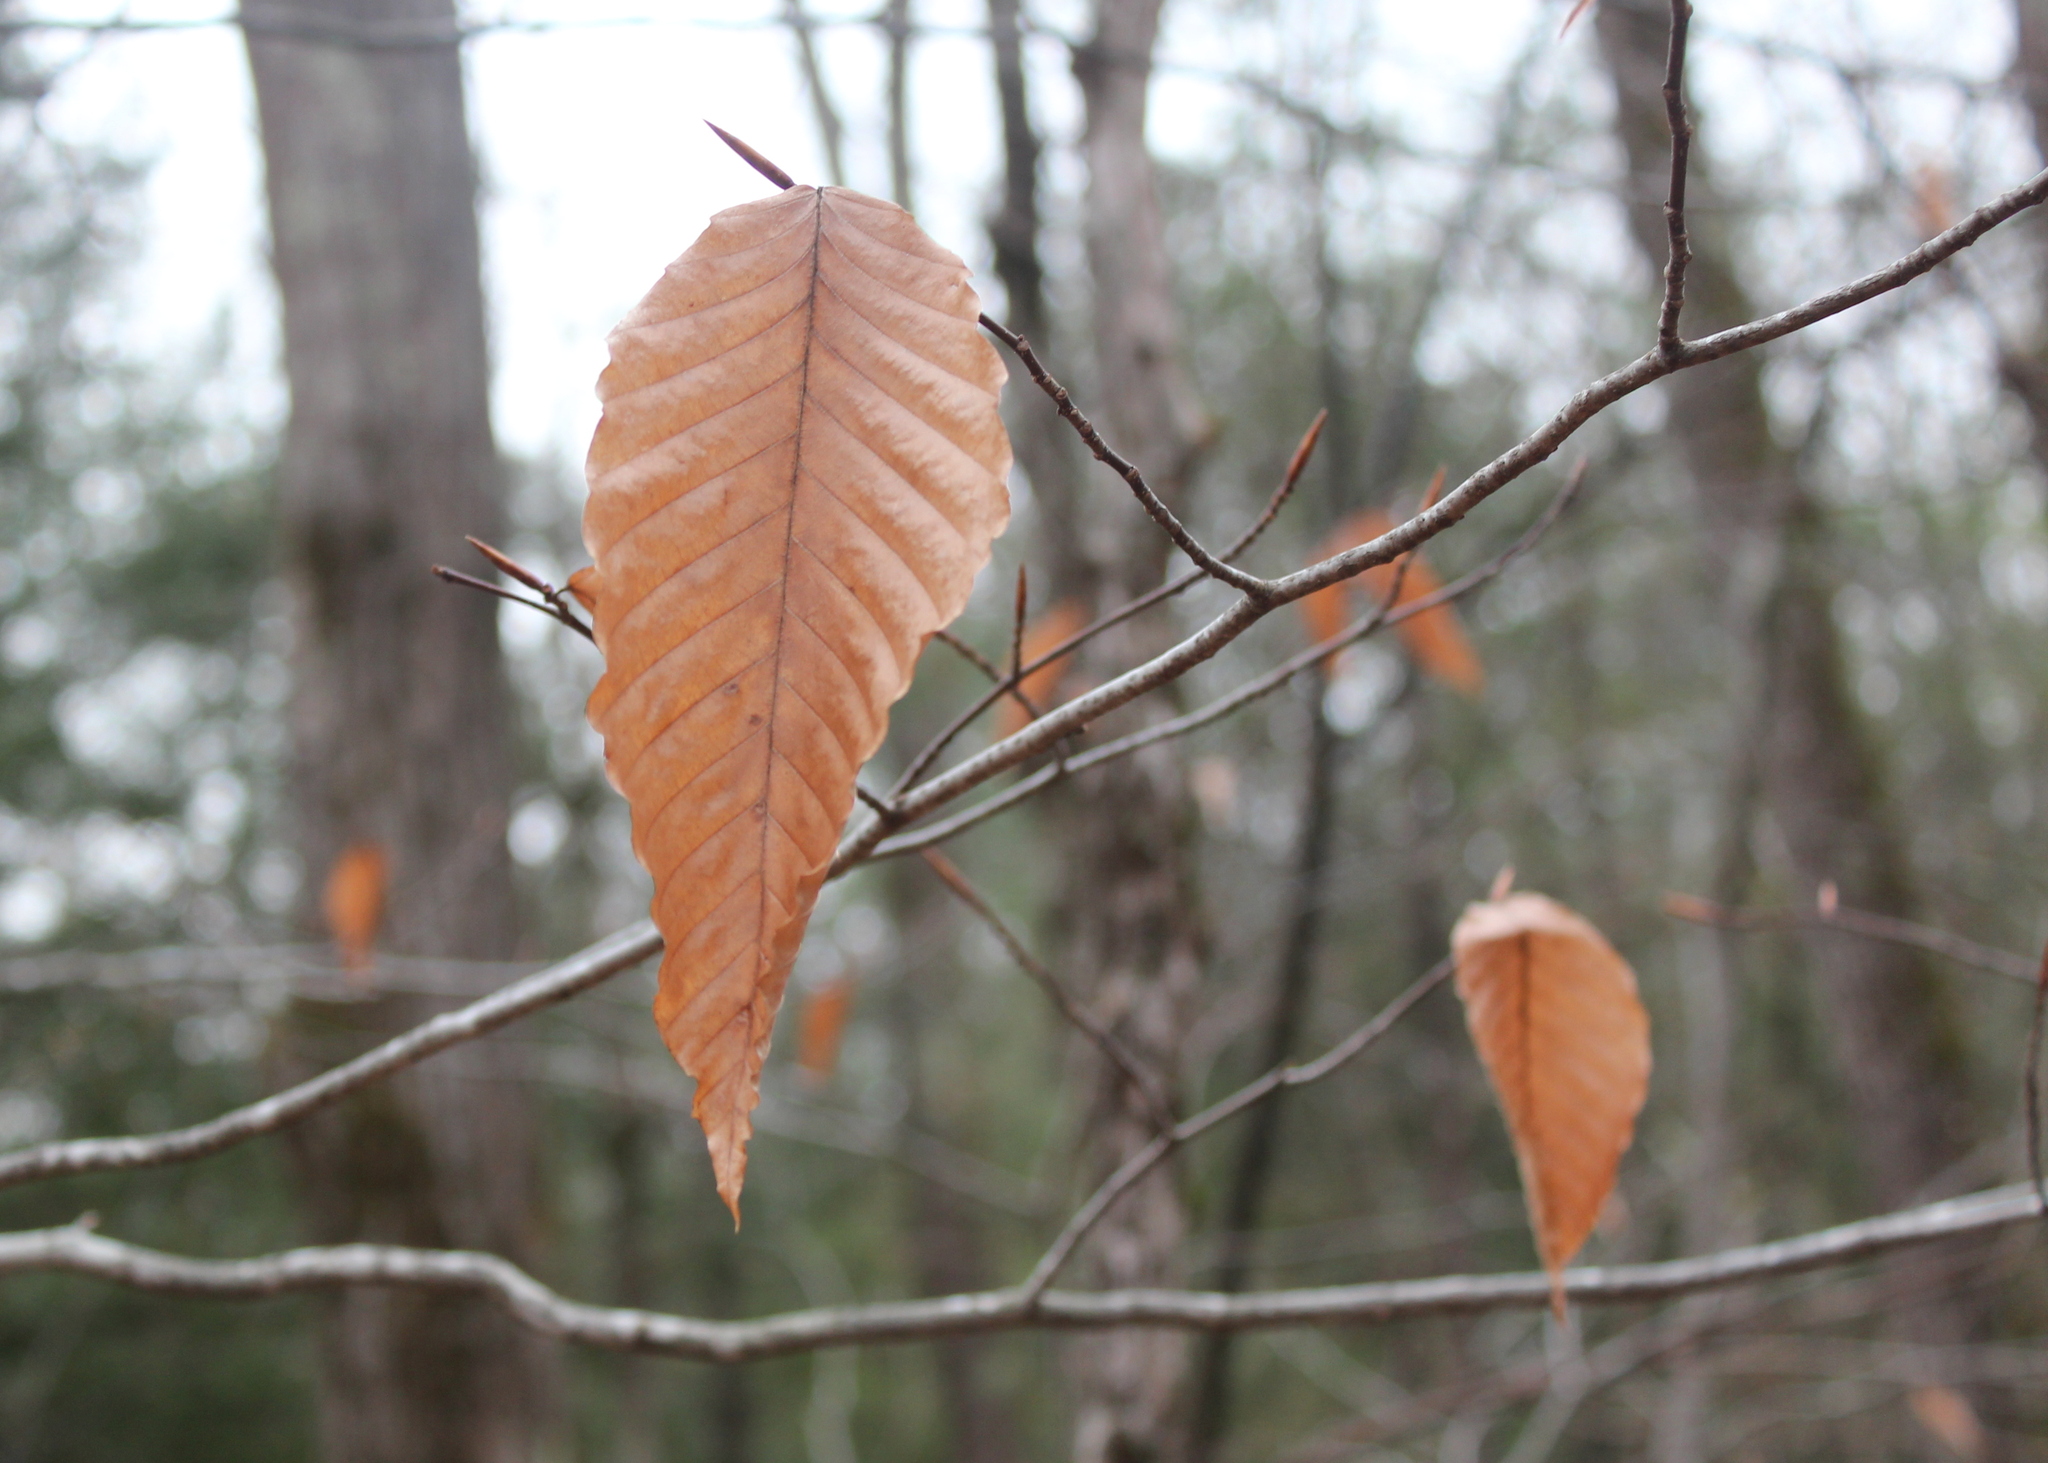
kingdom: Plantae
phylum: Tracheophyta
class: Magnoliopsida
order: Fagales
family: Fagaceae
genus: Fagus
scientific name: Fagus grandifolia
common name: American beech
